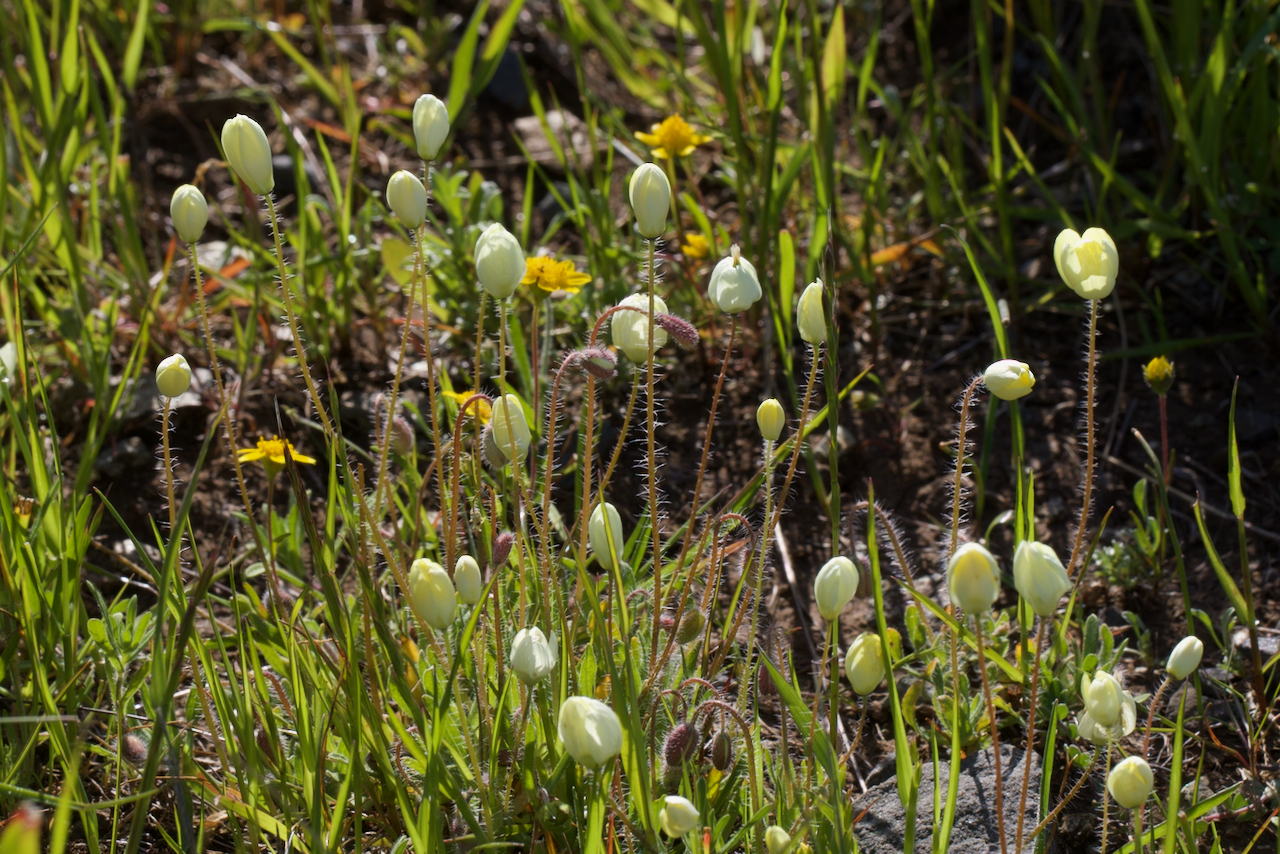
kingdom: Plantae
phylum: Tracheophyta
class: Magnoliopsida
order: Ranunculales
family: Papaveraceae
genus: Platystemon
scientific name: Platystemon californicus
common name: Cream-cups
